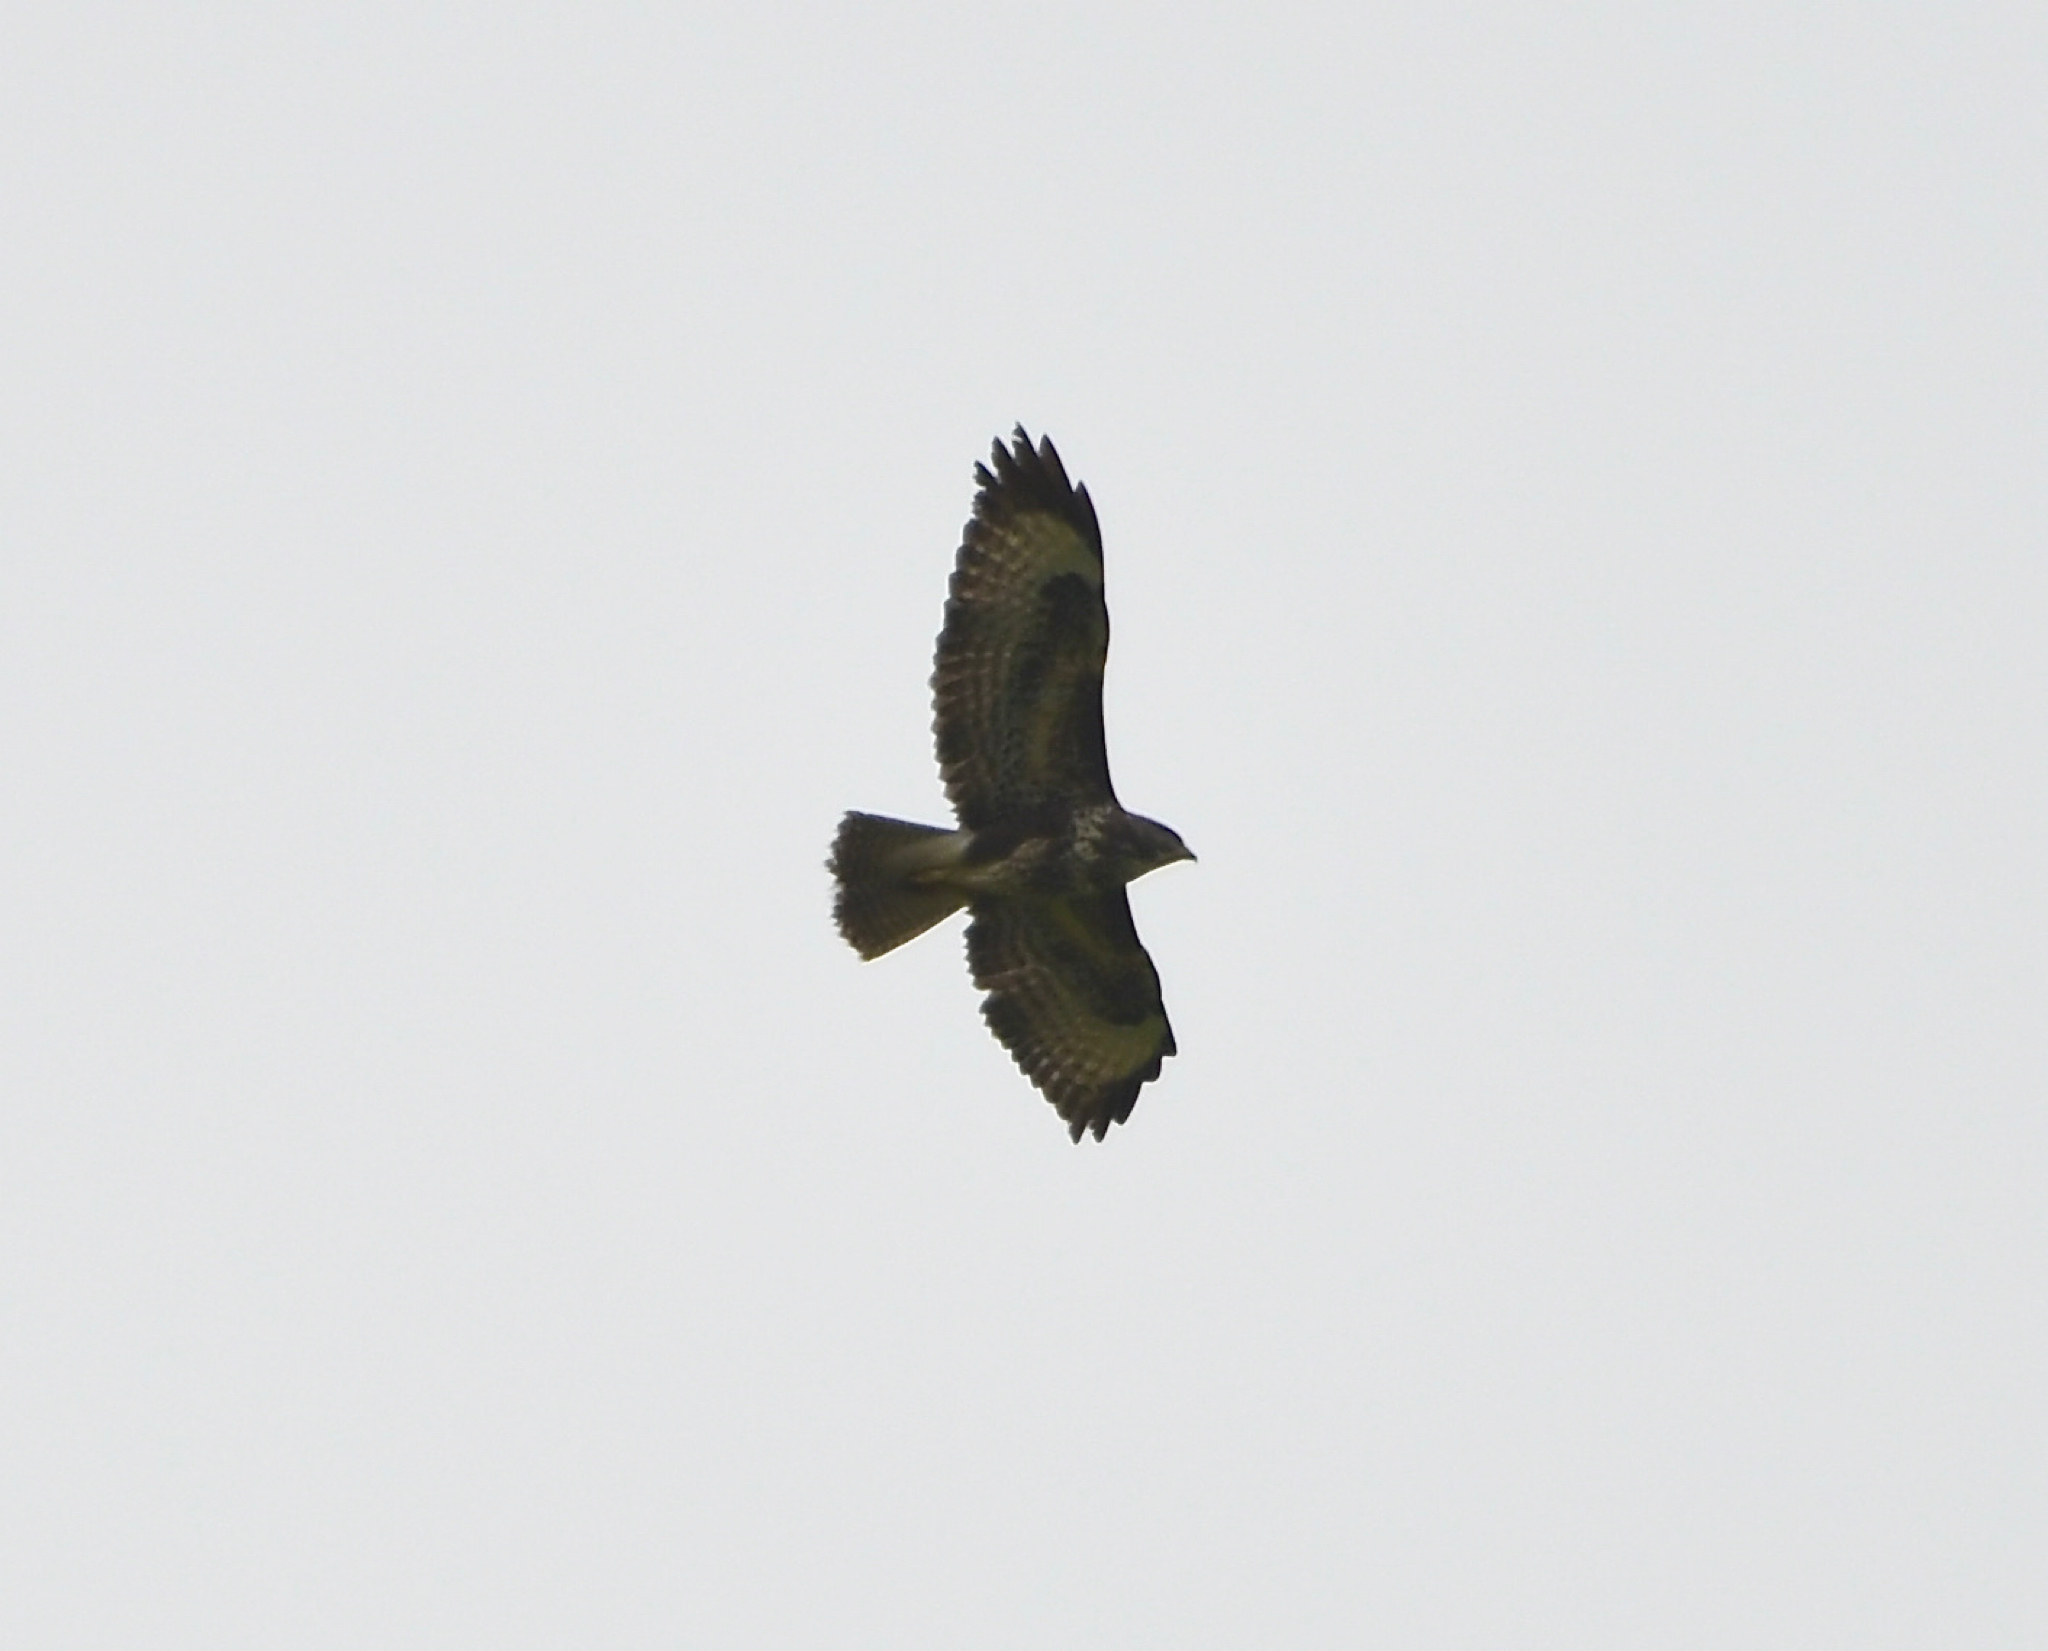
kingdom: Animalia
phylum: Chordata
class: Aves
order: Accipitriformes
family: Accipitridae
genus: Buteo
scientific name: Buteo buteo
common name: Common buzzard
